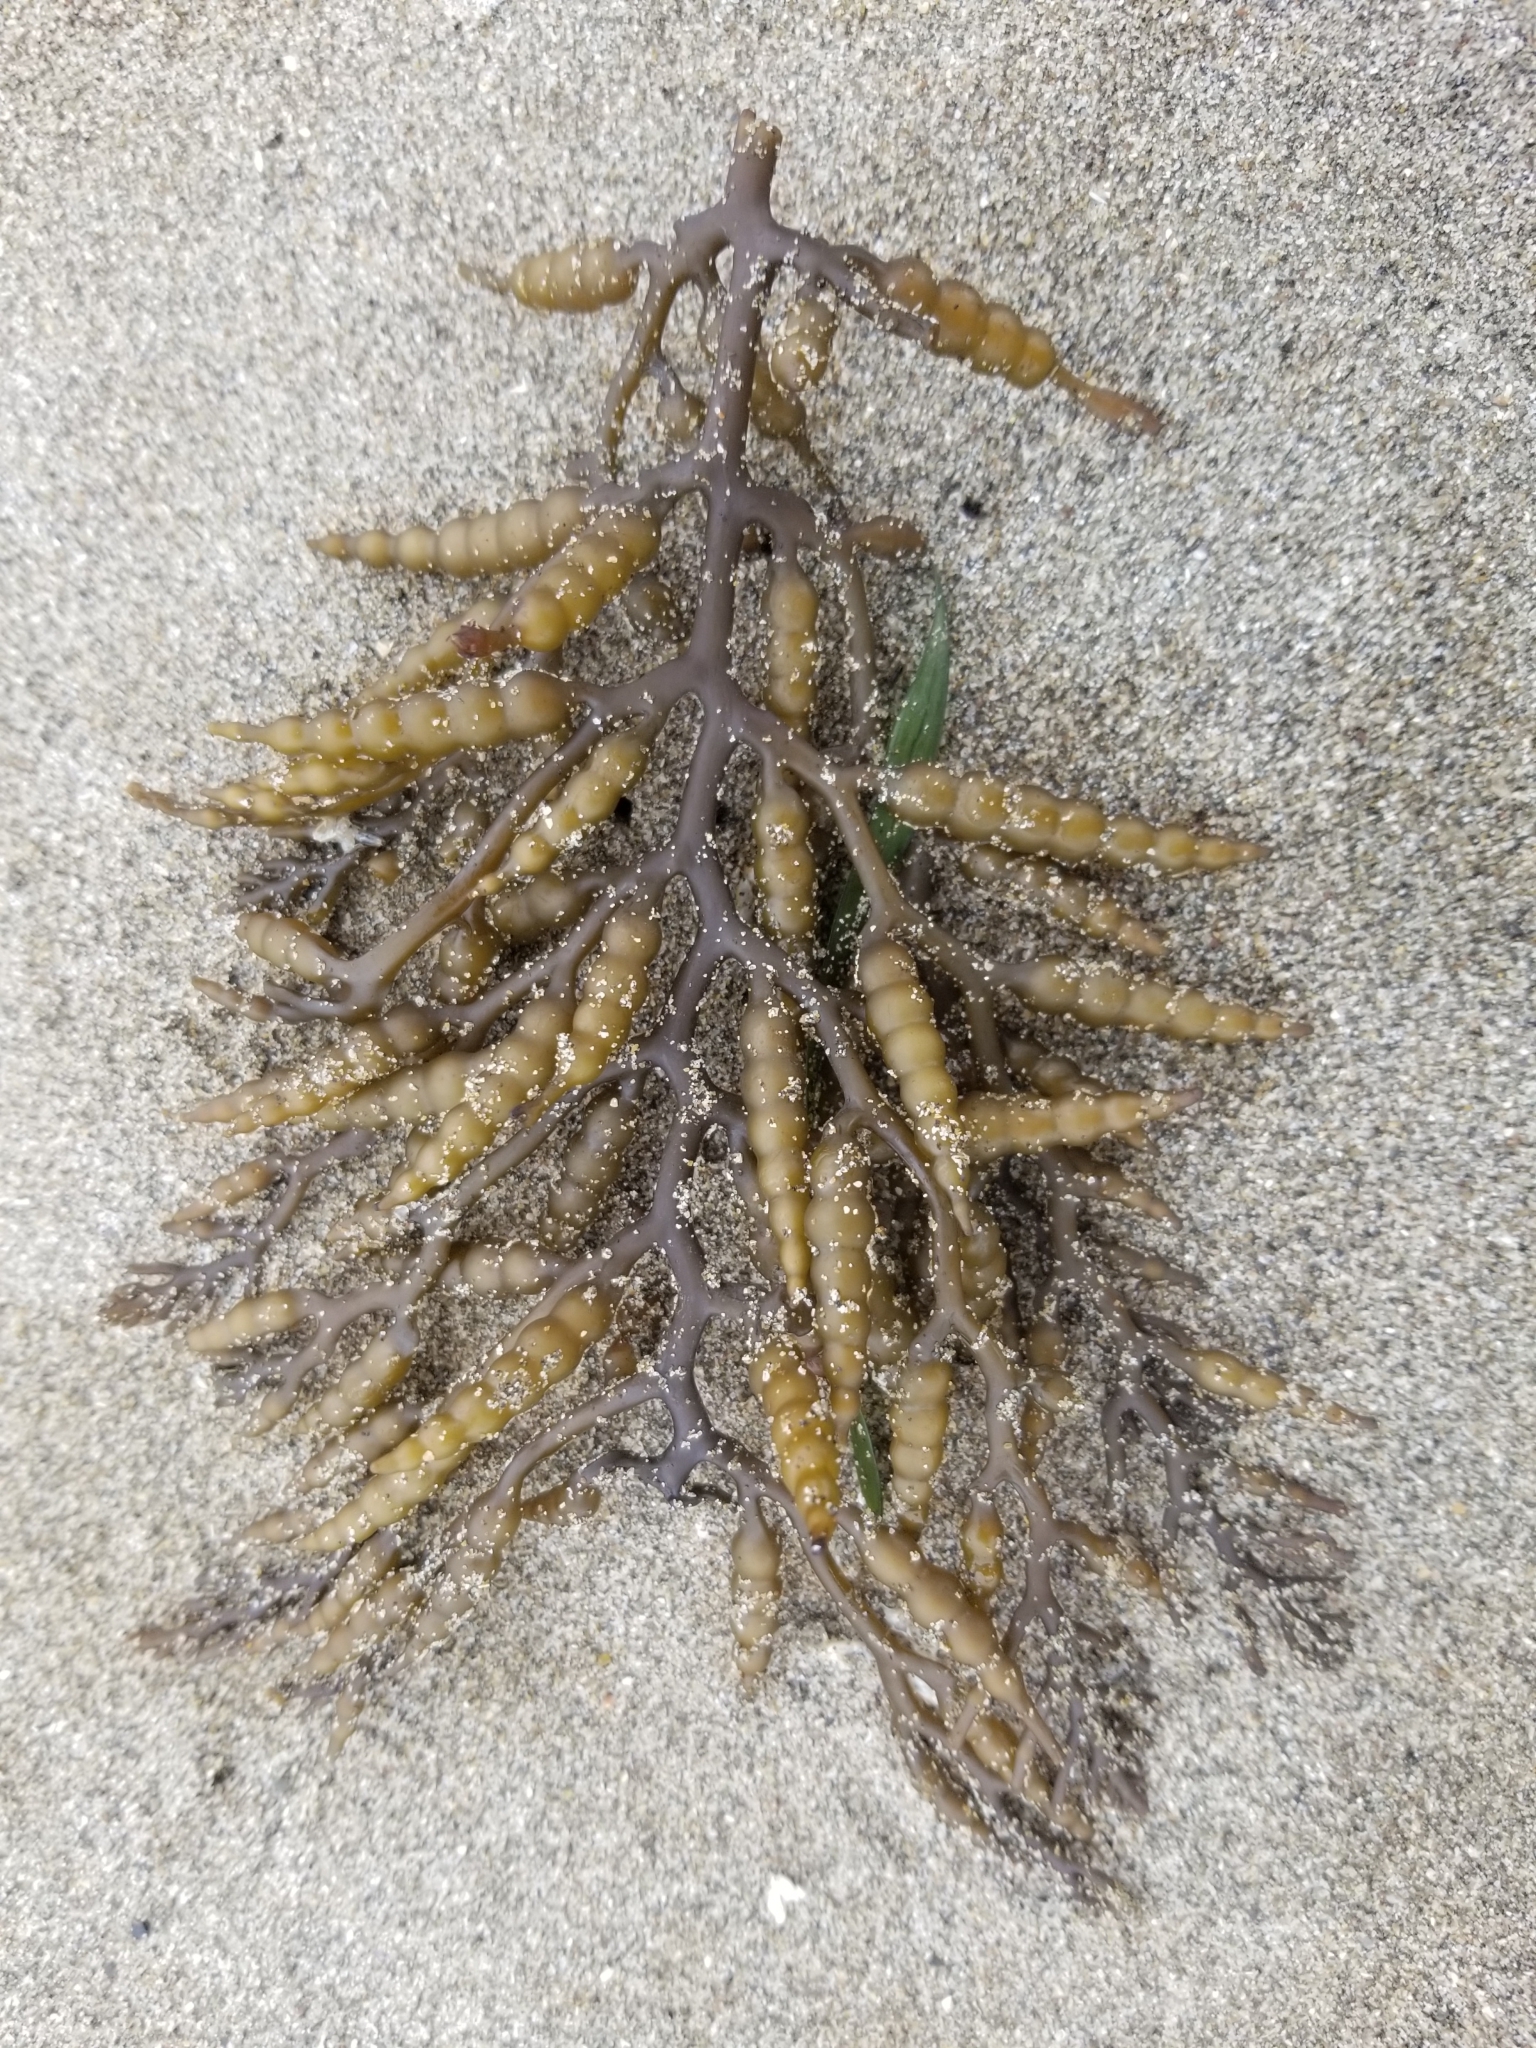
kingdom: Chromista
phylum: Ochrophyta
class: Phaeophyceae
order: Fucales
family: Sargassaceae
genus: Stephanocystis
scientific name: Stephanocystis
